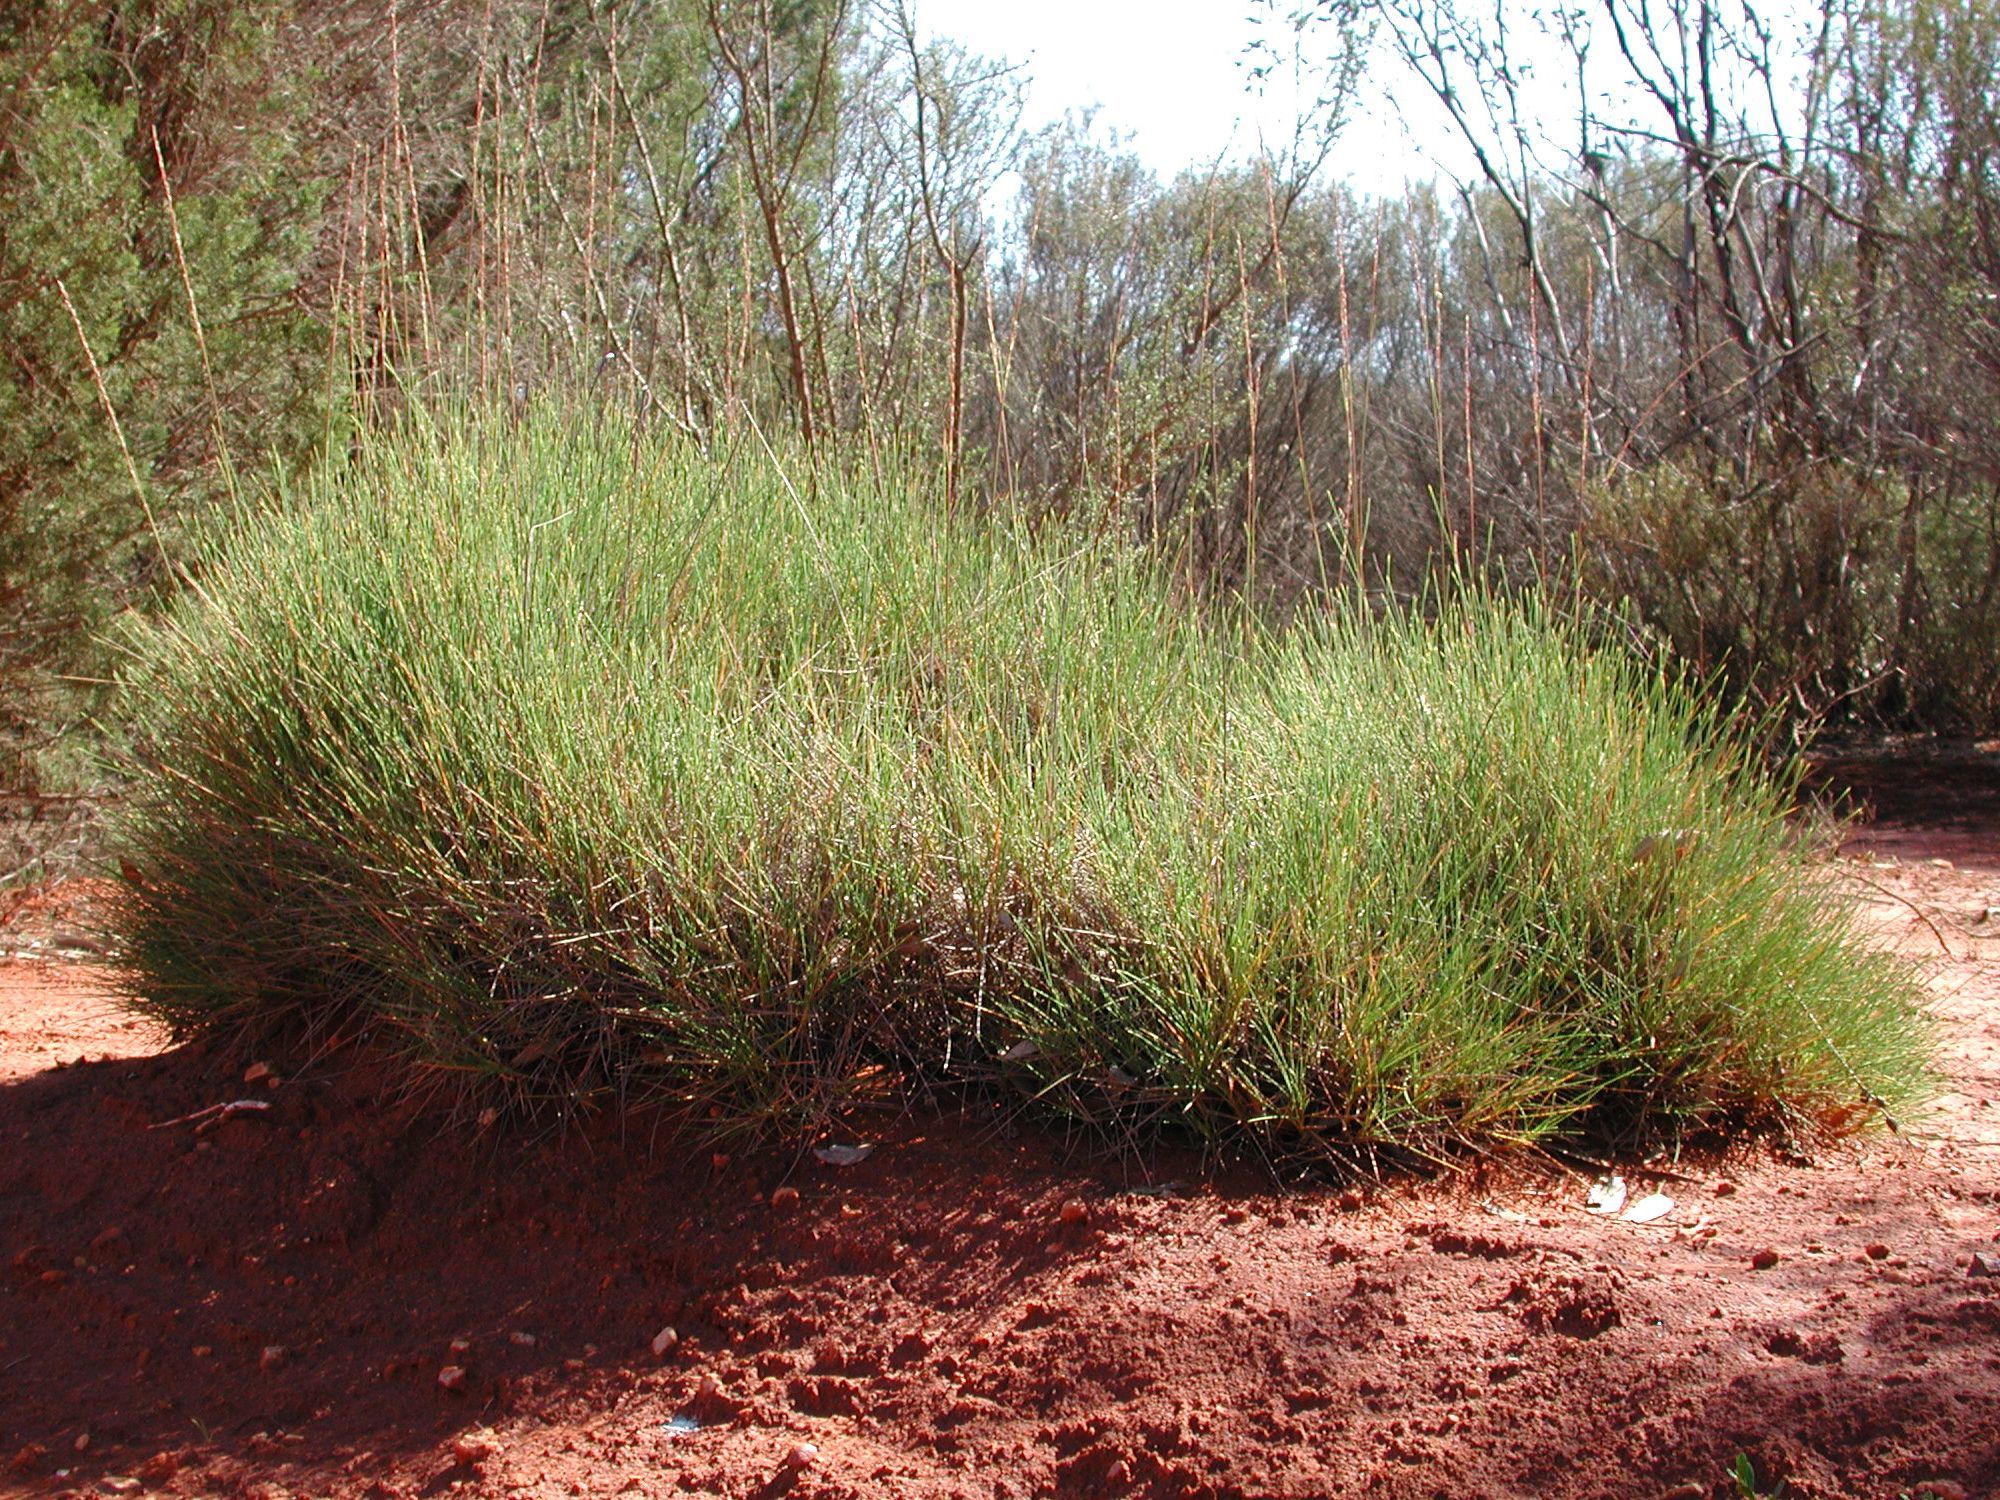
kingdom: Plantae
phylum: Tracheophyta
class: Liliopsida
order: Poales
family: Poaceae
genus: Triodia
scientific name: Triodia scariosa
